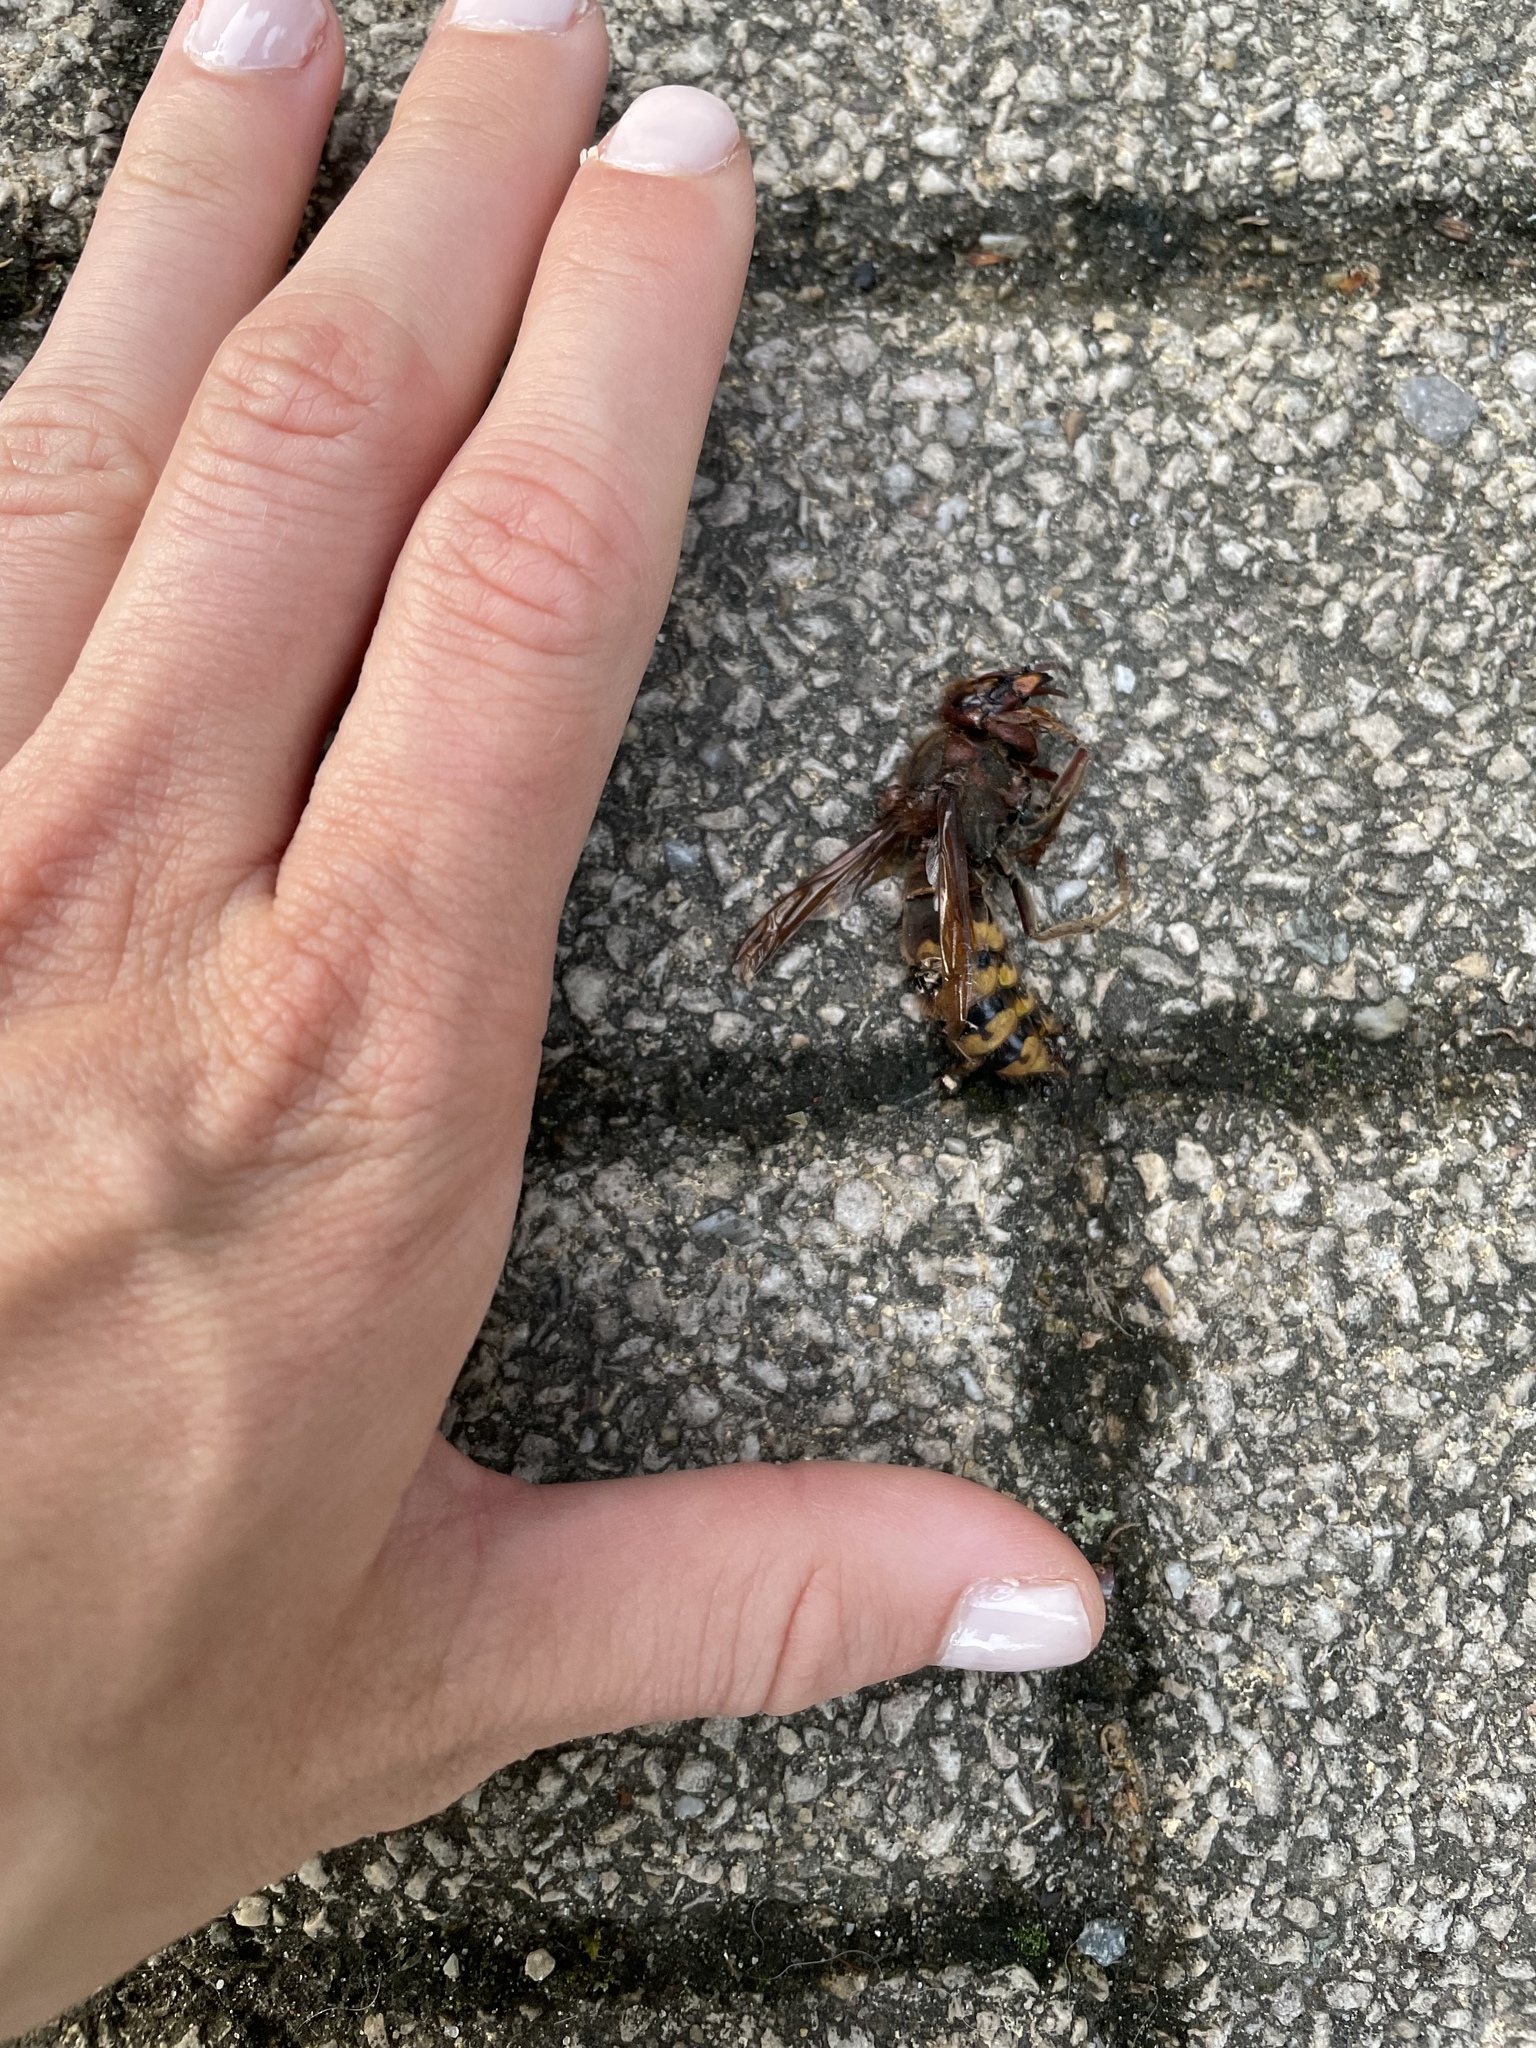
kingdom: Animalia
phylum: Arthropoda
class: Insecta
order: Hymenoptera
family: Vespidae
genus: Vespa
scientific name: Vespa crabro
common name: Hornet
